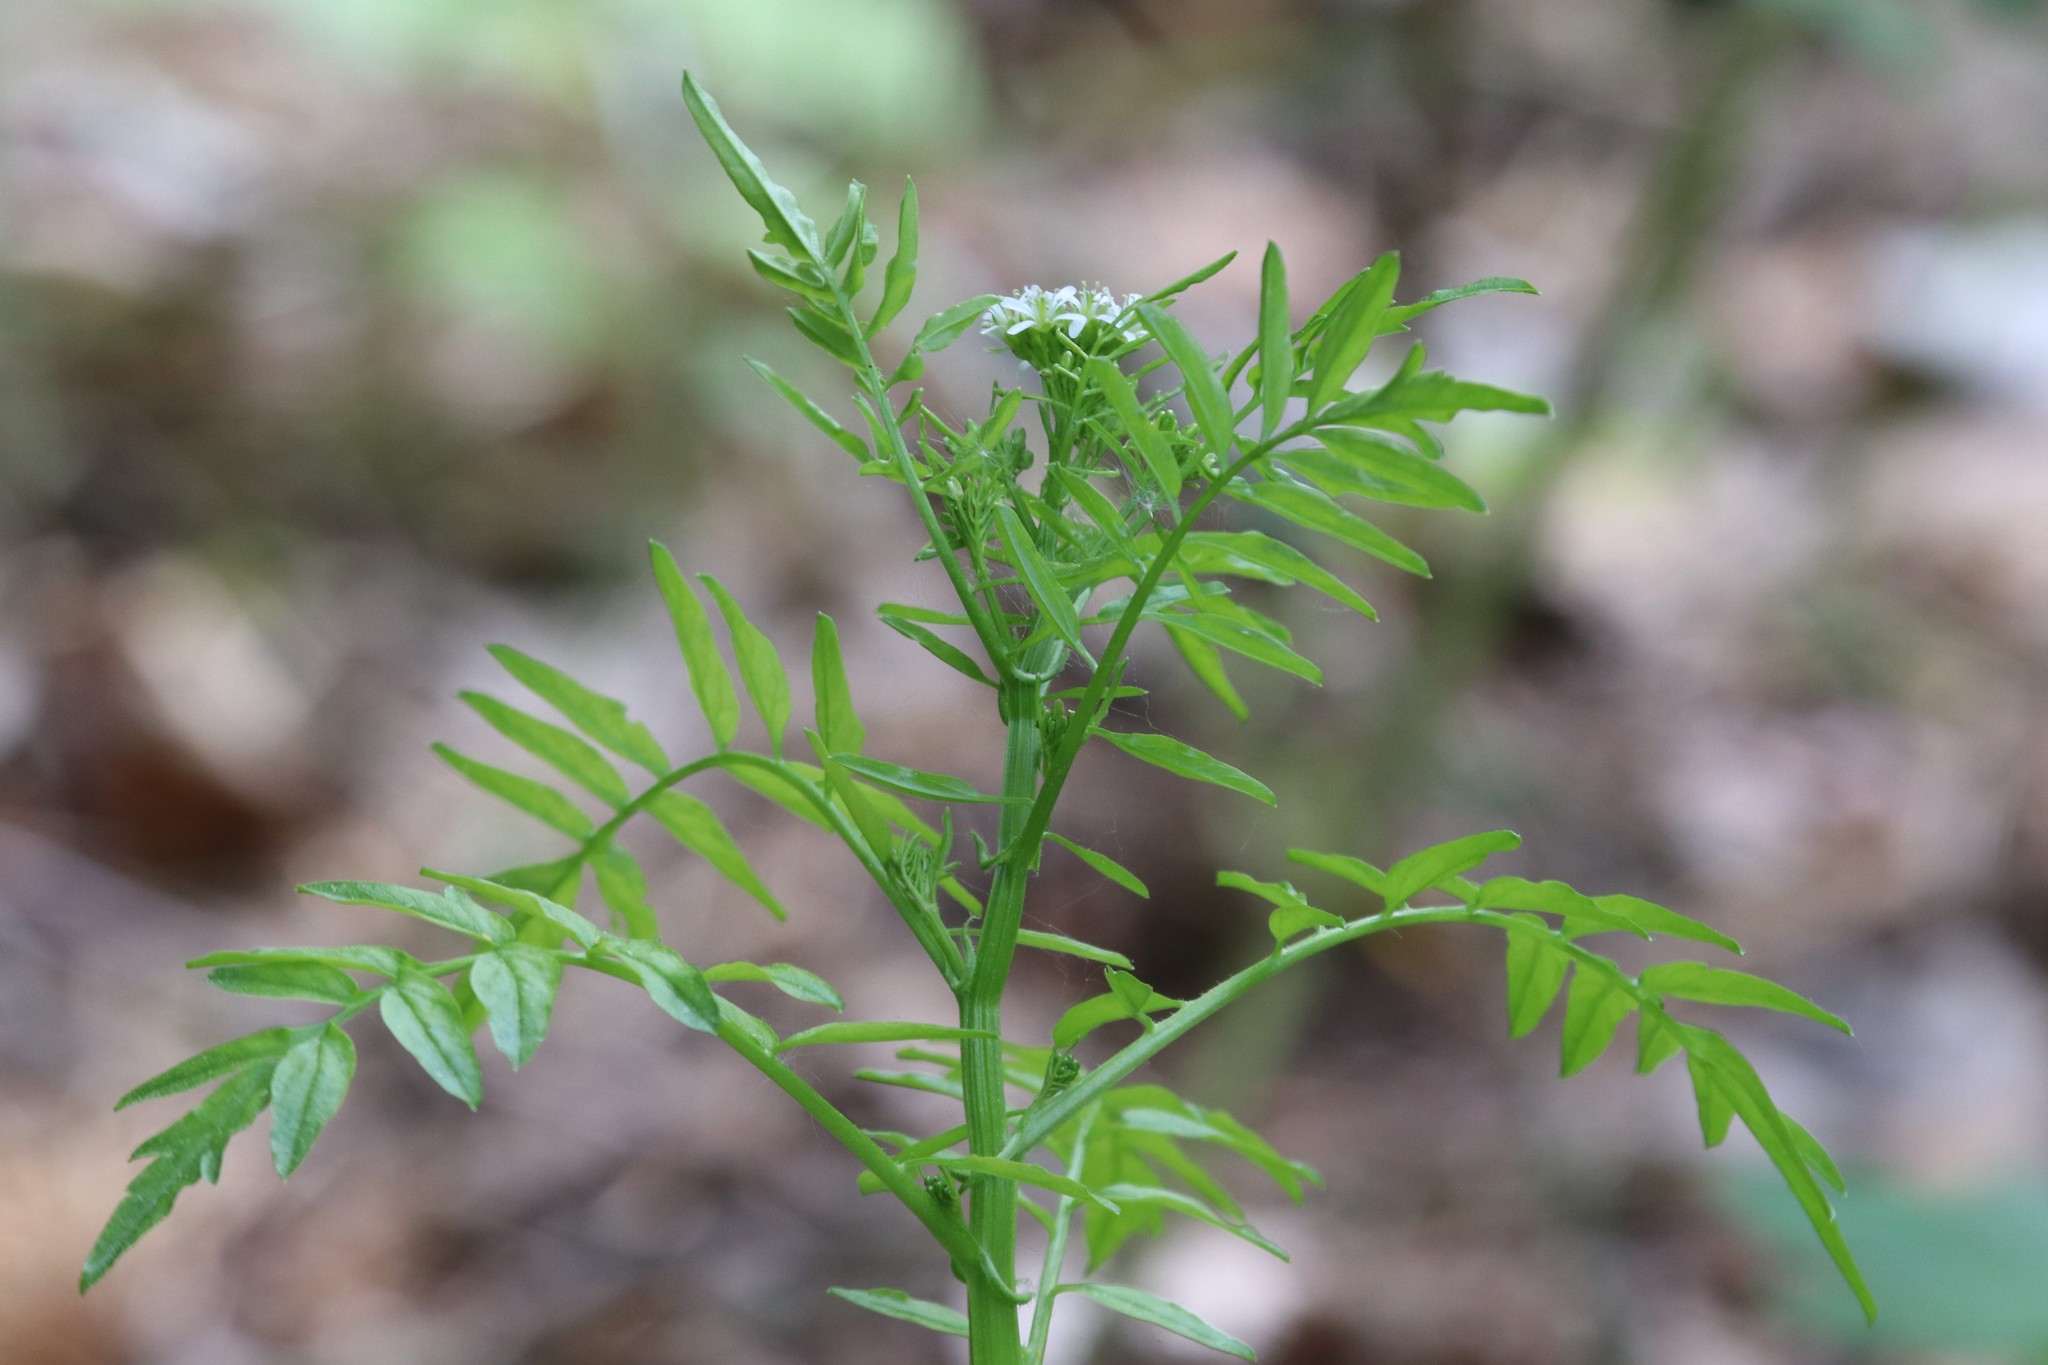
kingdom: Plantae
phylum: Tracheophyta
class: Magnoliopsida
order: Brassicales
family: Brassicaceae
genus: Cardamine
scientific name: Cardamine impatiens
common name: Narrow-leaved bitter-cress
